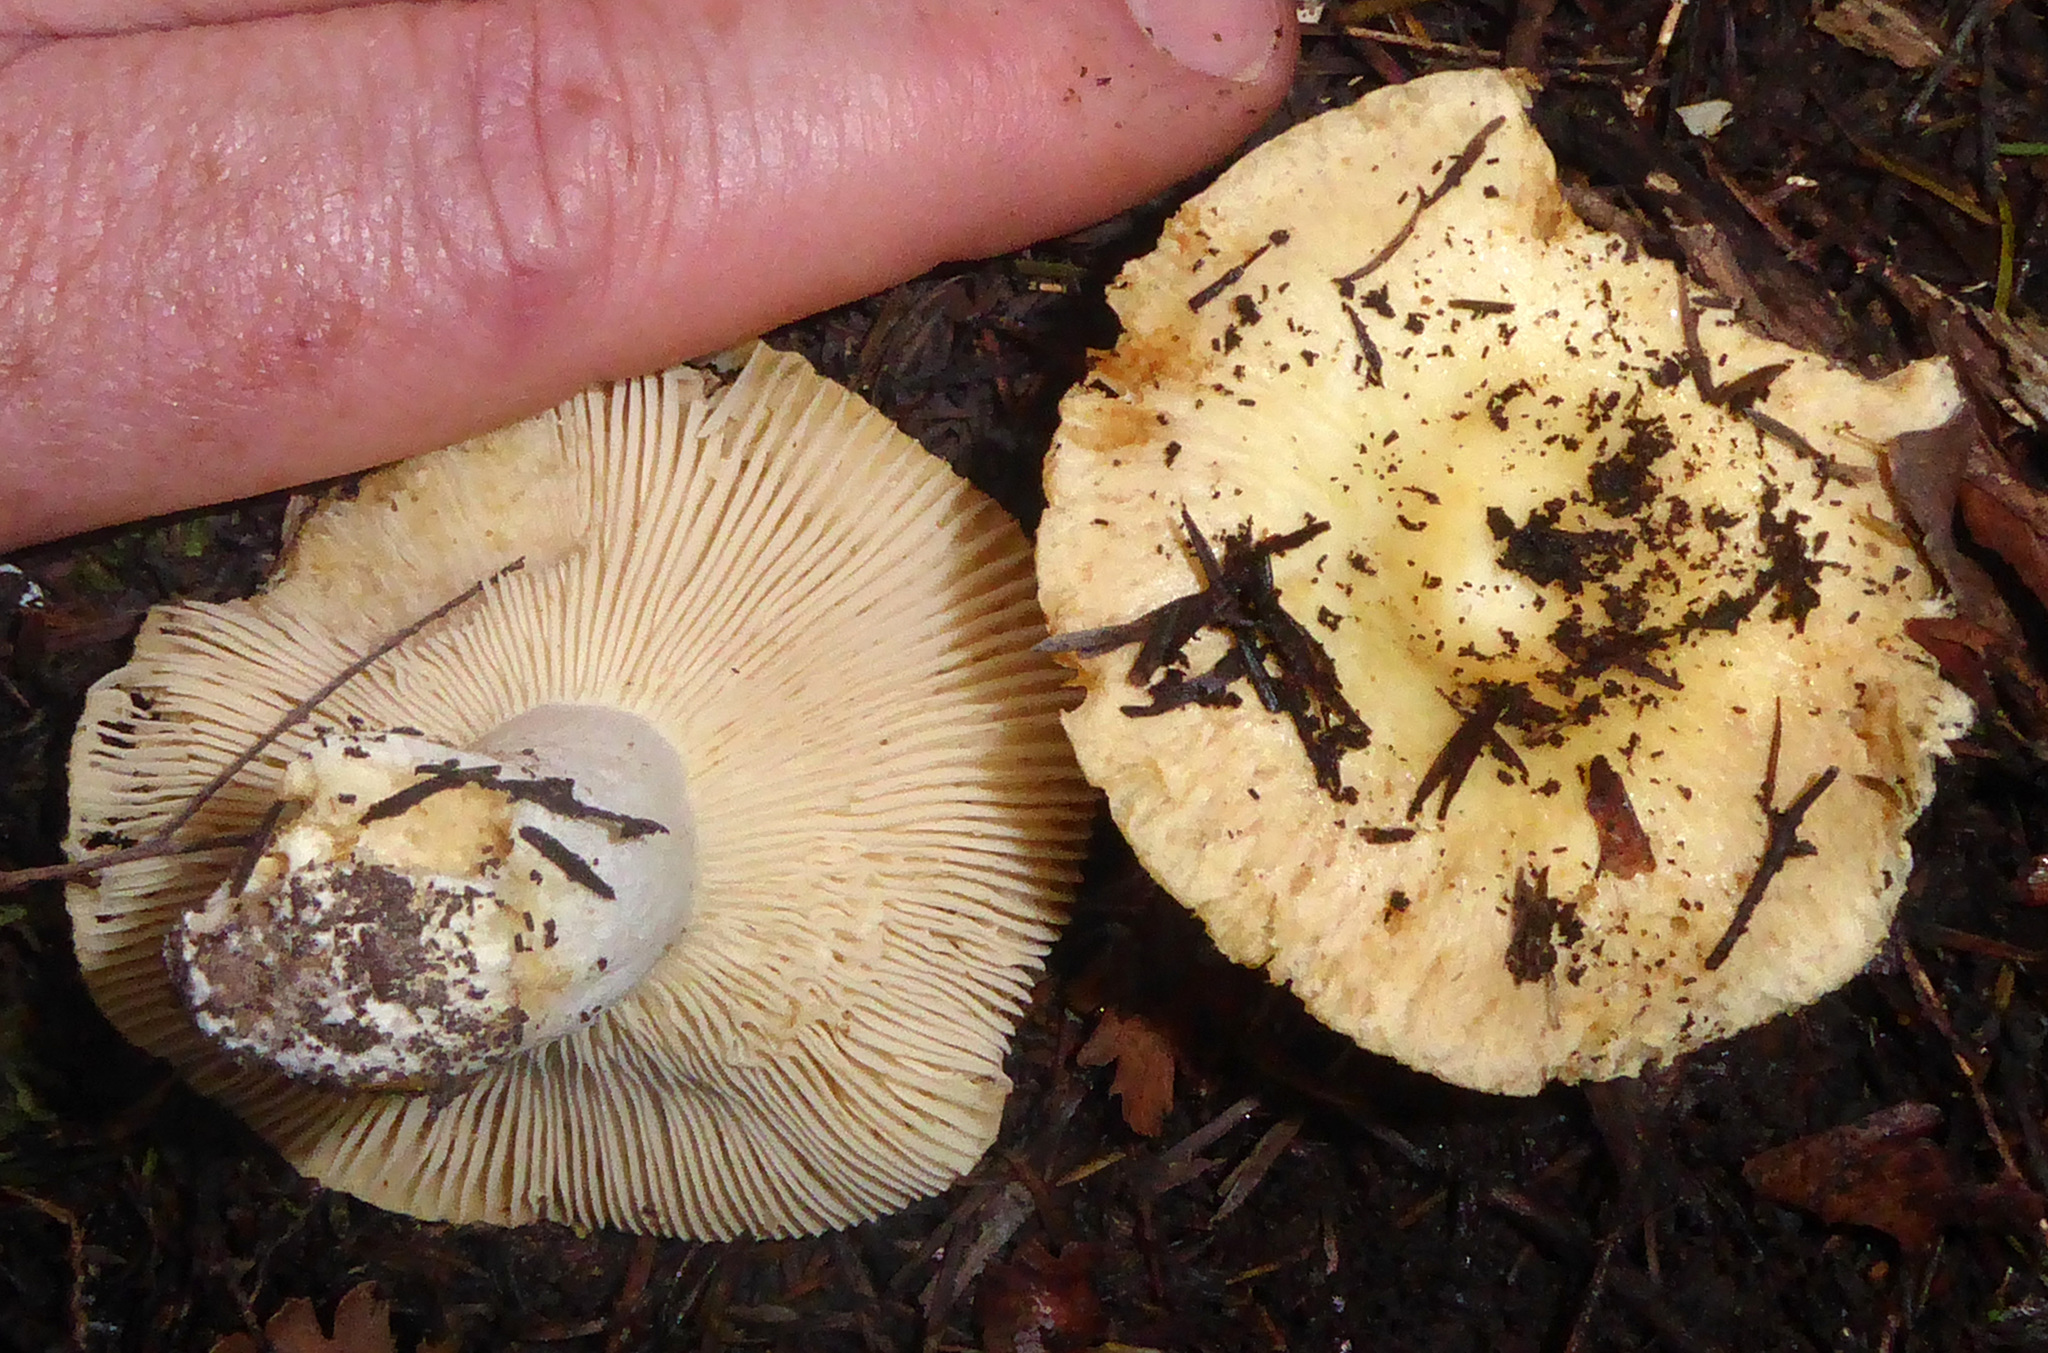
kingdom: Fungi
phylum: Basidiomycota
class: Agaricomycetes
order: Russulales
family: Russulaceae
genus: Russula
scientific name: Russula acrolamellata
